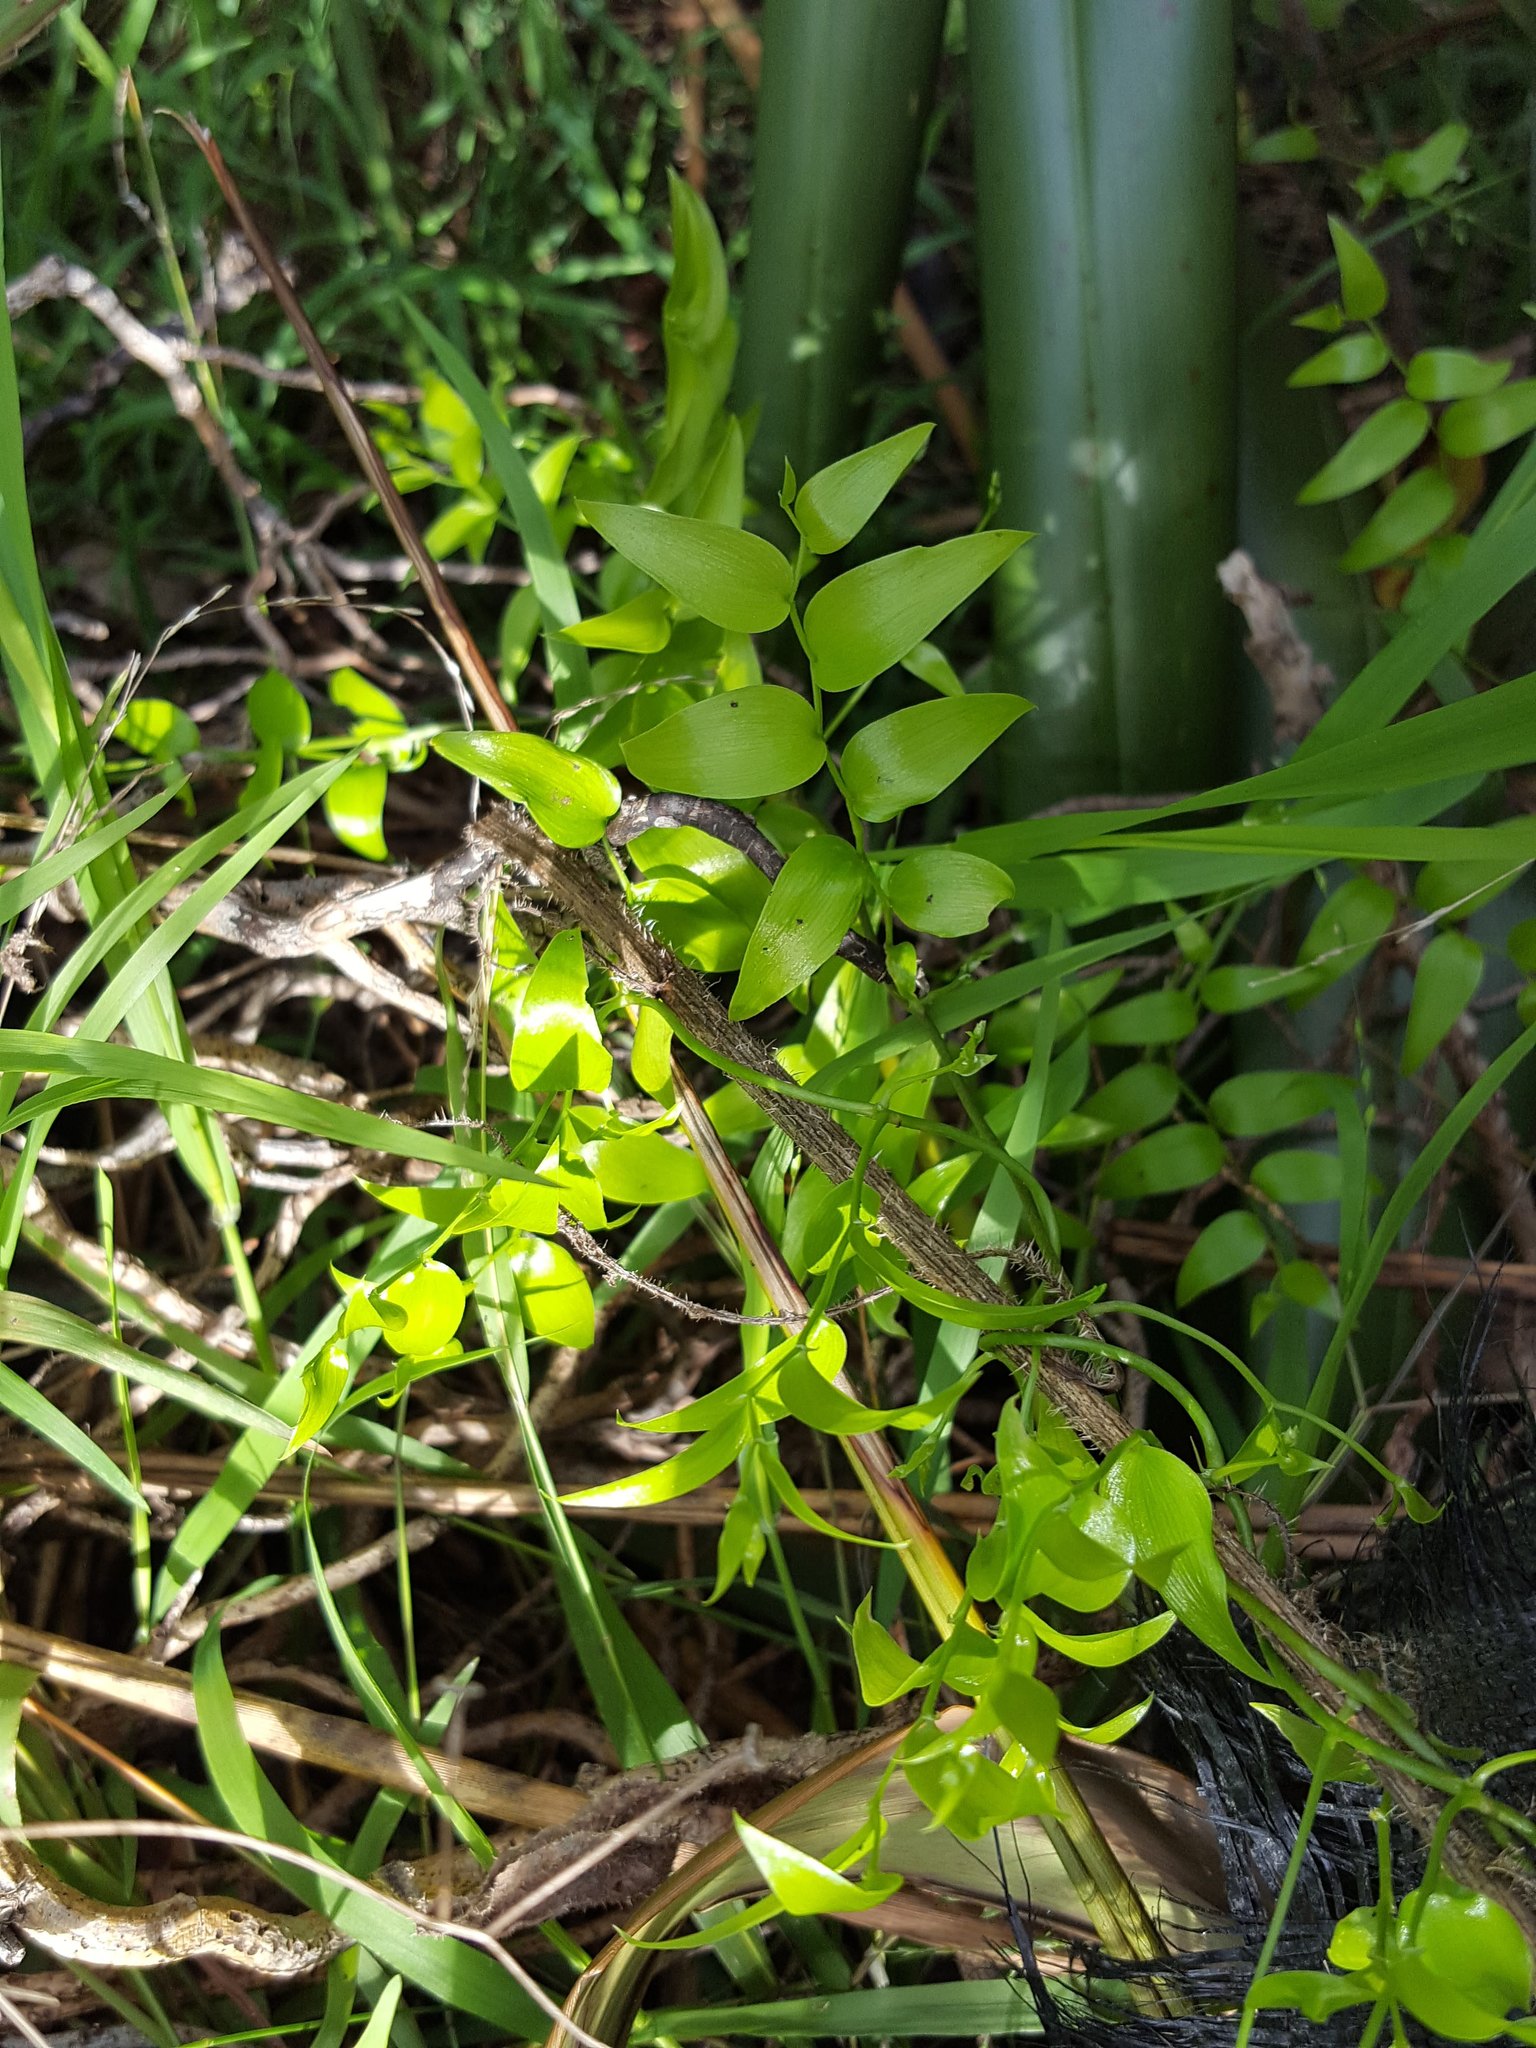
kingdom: Plantae
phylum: Tracheophyta
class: Liliopsida
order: Asparagales
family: Asparagaceae
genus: Asparagus
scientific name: Asparagus asparagoides
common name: African asparagus fern
